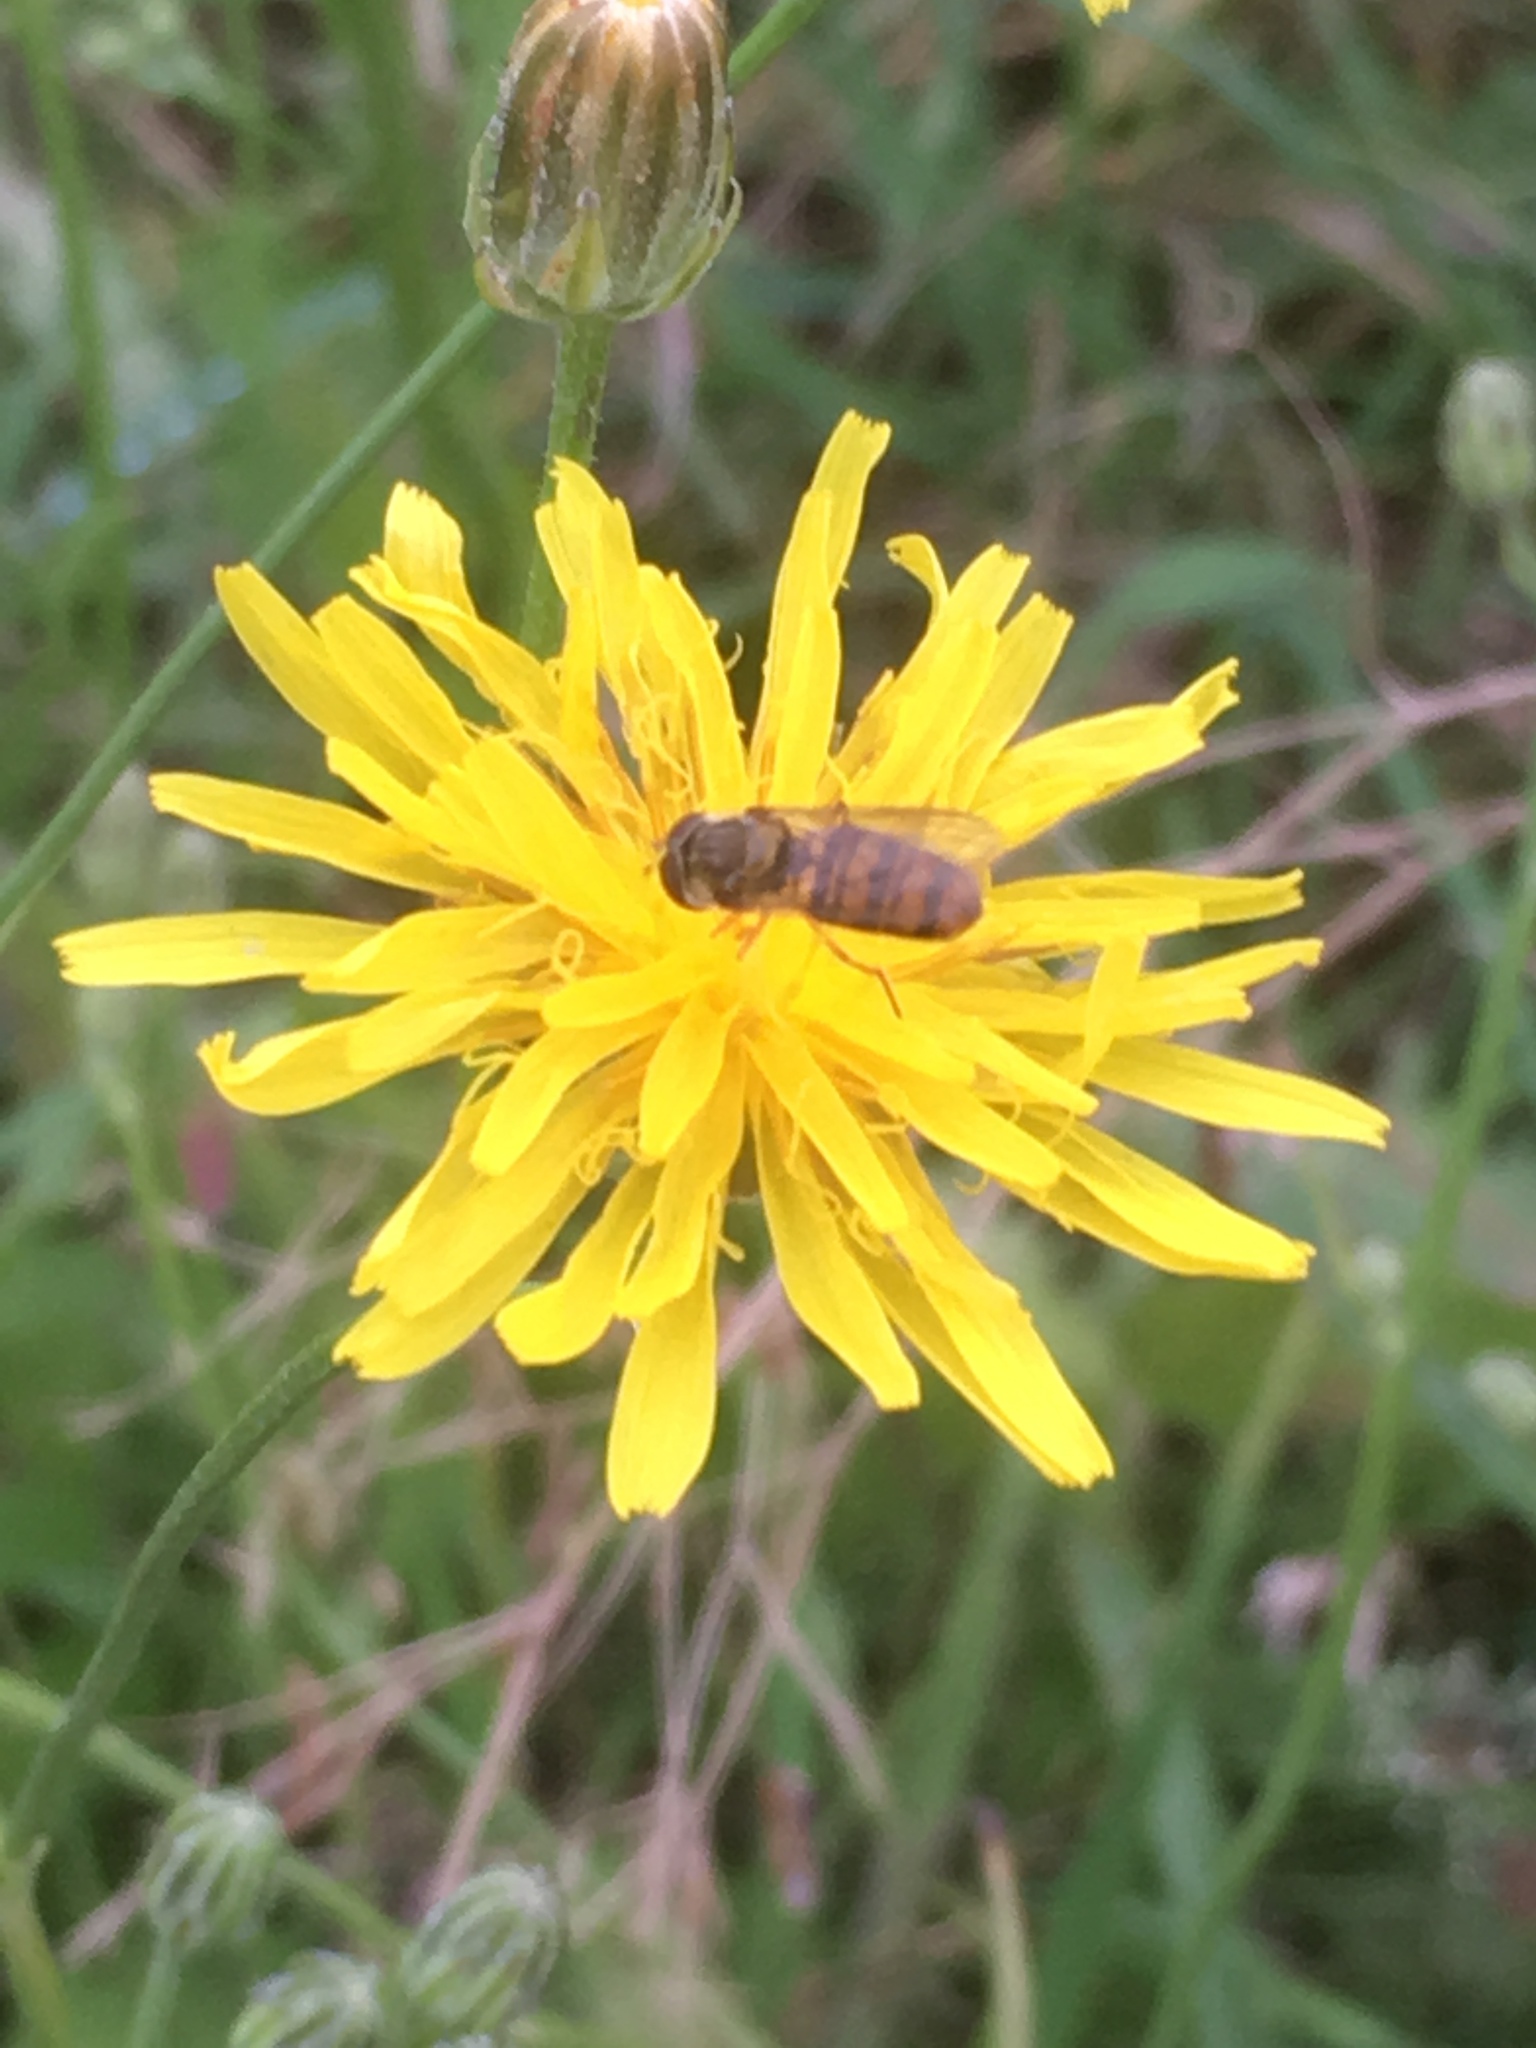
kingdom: Animalia
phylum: Arthropoda
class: Insecta
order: Diptera
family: Syrphidae
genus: Episyrphus
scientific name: Episyrphus balteatus
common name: Marmalade hoverfly
